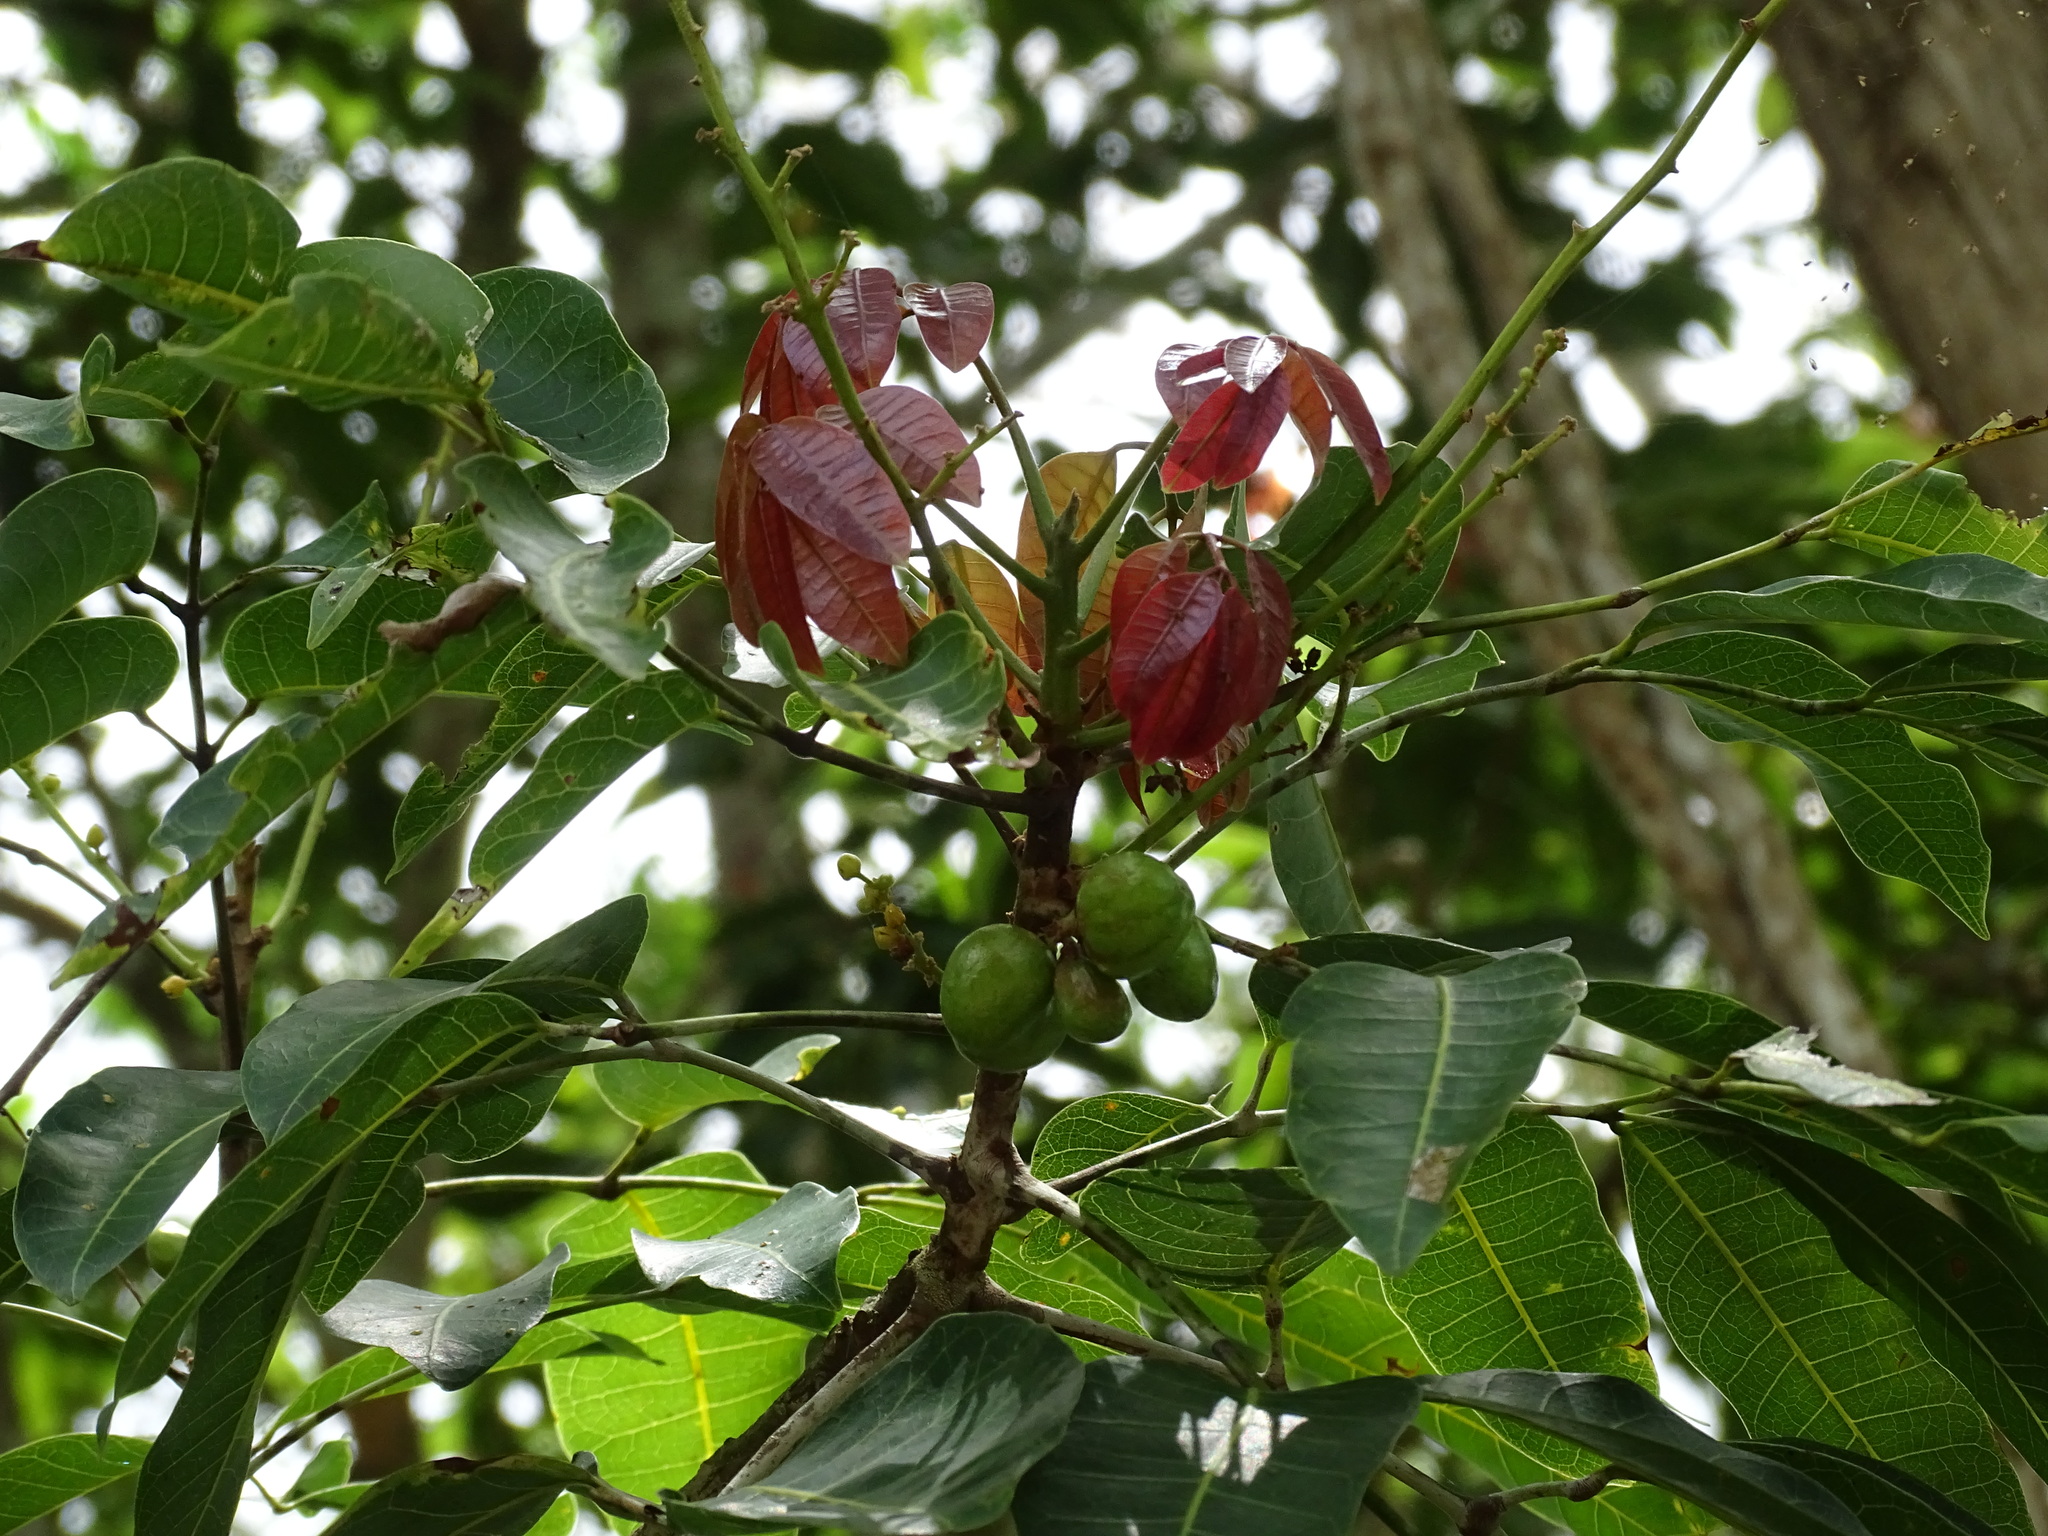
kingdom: Plantae
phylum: Tracheophyta
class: Magnoliopsida
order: Sapindales
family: Burseraceae
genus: Protium
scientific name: Protium copal
